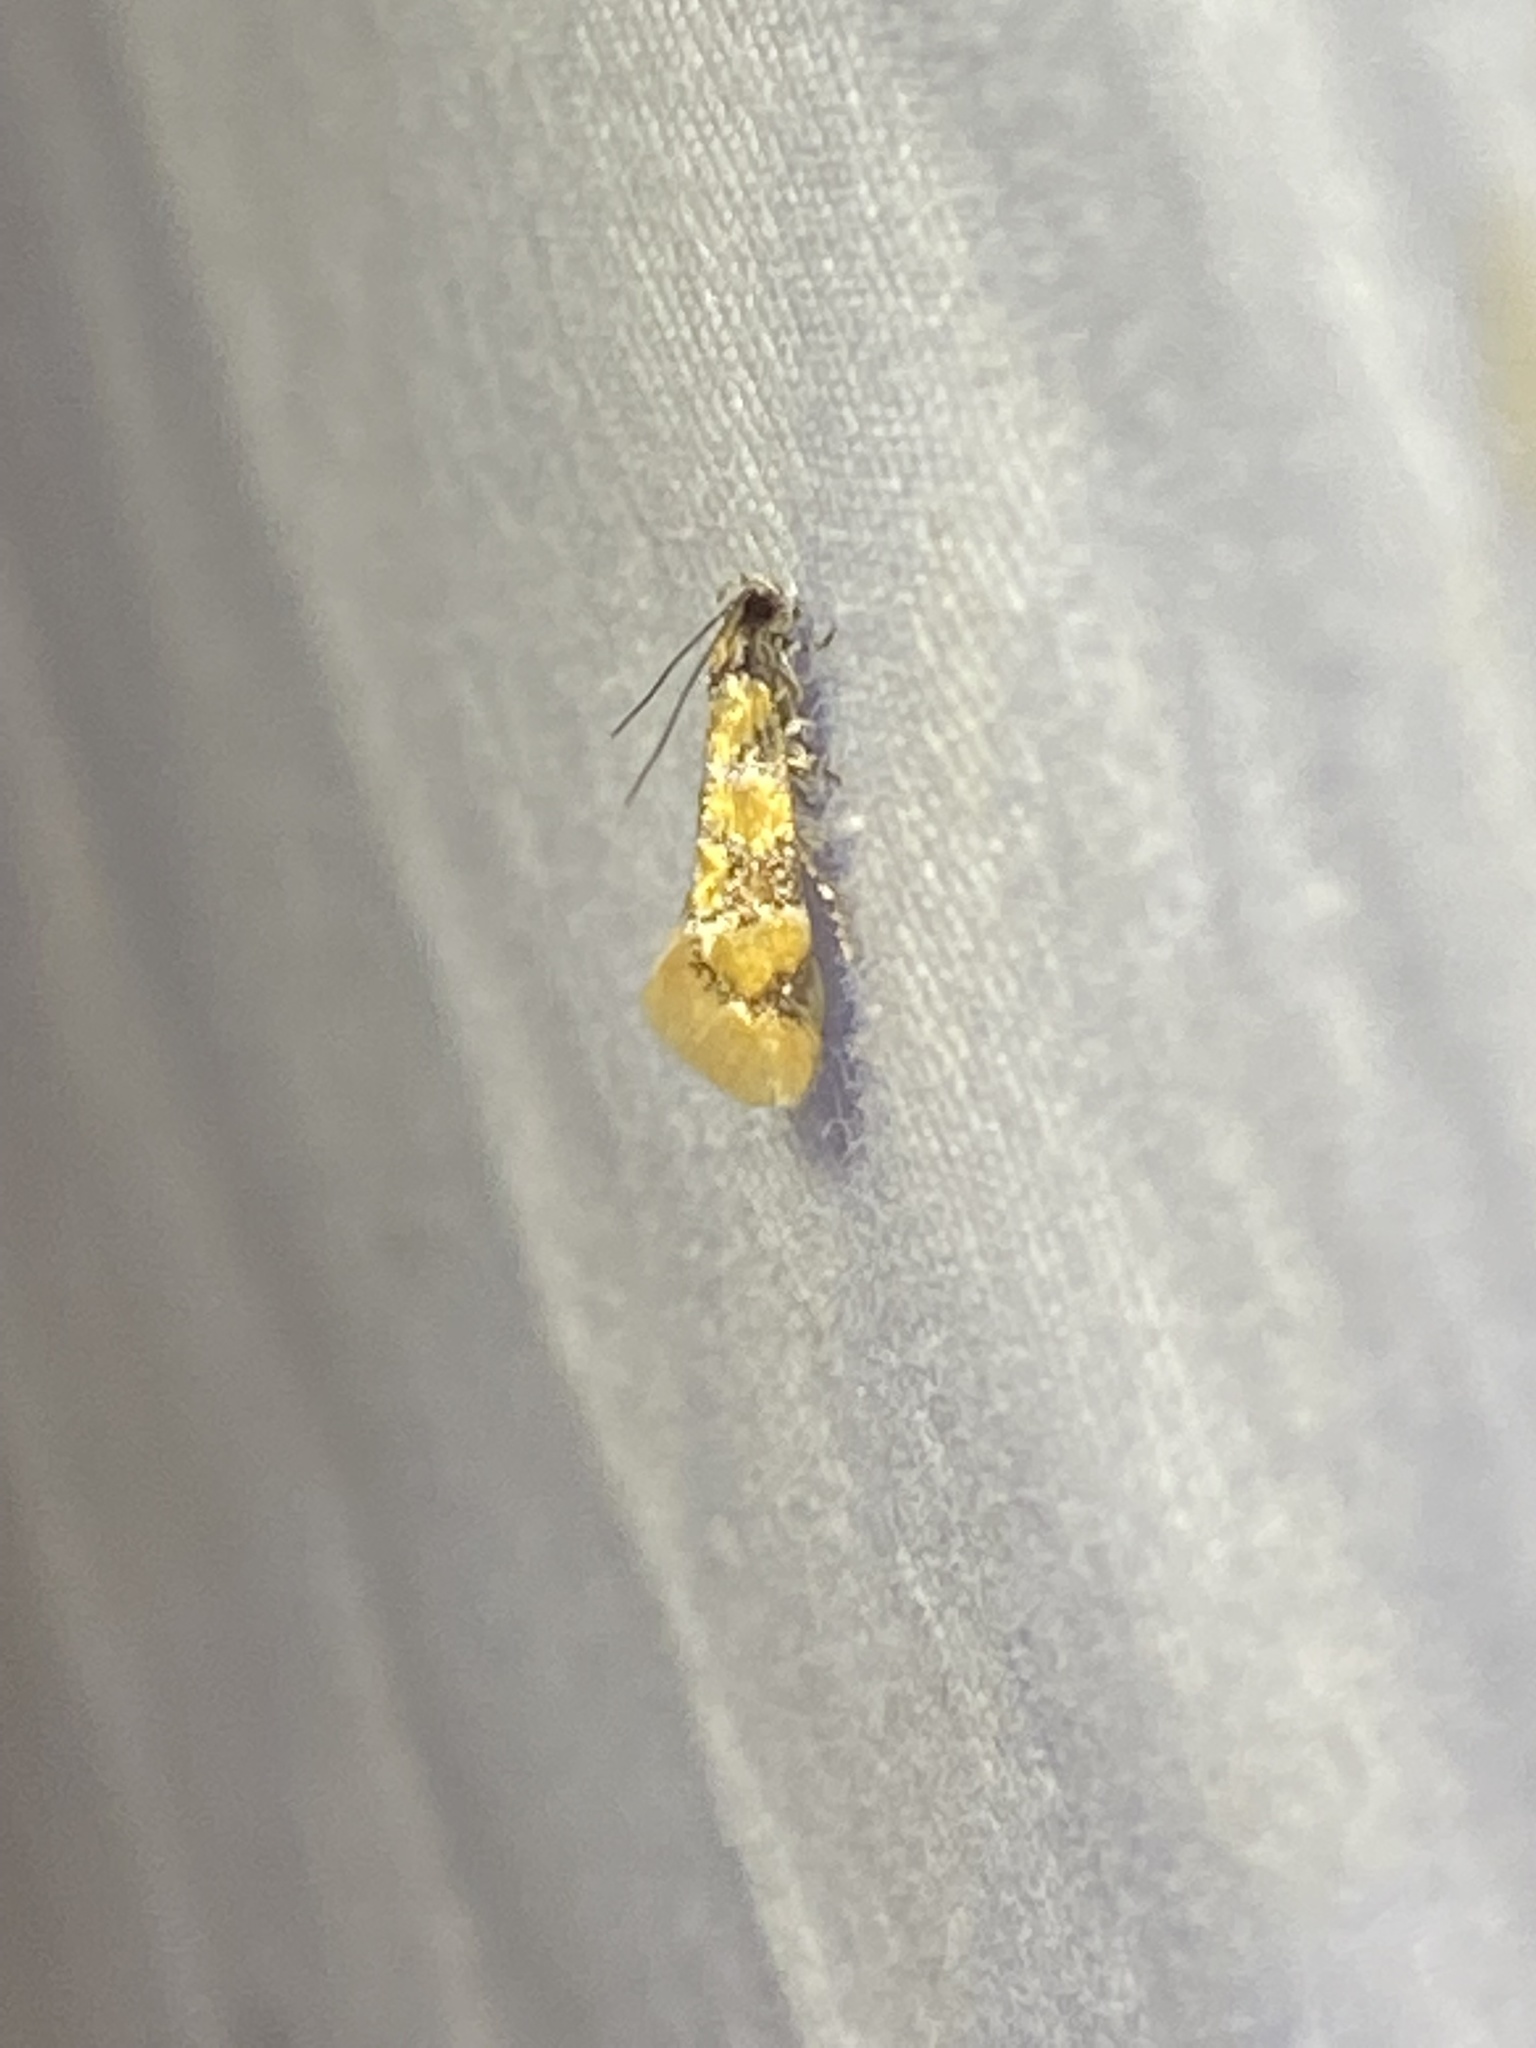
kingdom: Animalia
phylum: Arthropoda
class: Insecta
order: Lepidoptera
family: Oecophoridae
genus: Decantha
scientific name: Decantha borkhausenii
